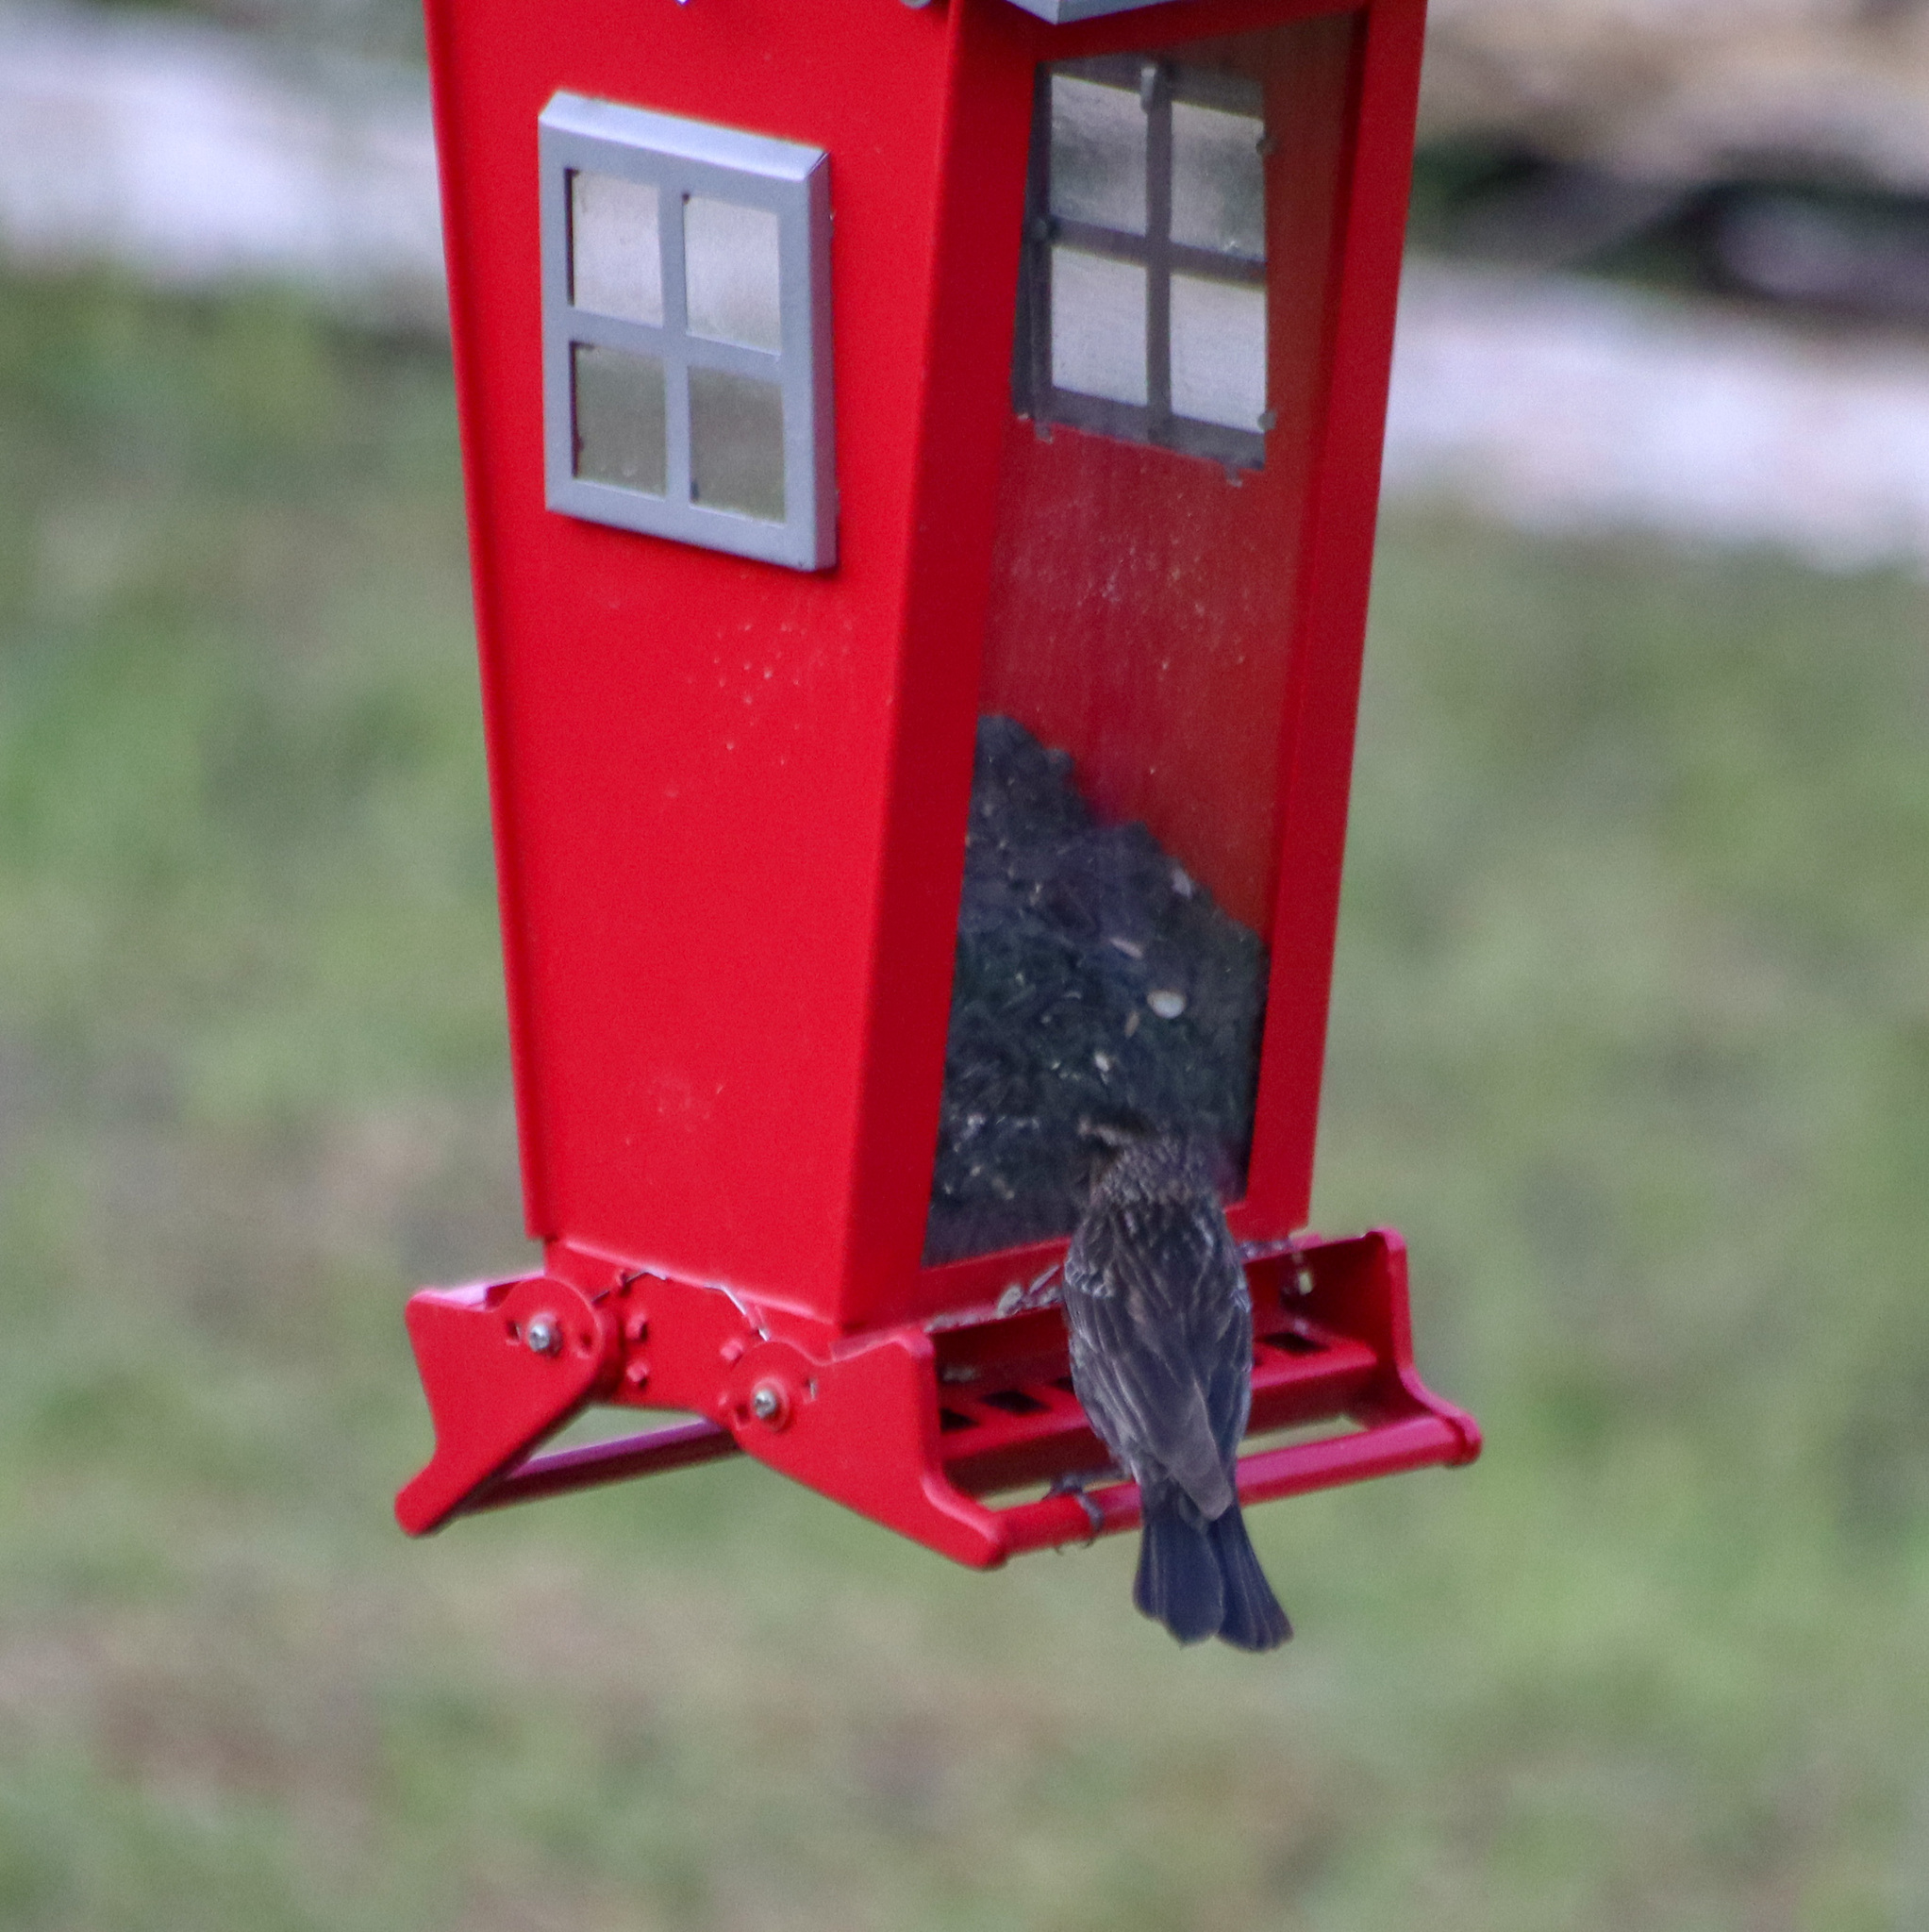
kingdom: Animalia
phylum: Chordata
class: Aves
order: Passeriformes
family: Icteridae
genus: Agelaius
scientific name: Agelaius phoeniceus
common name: Red-winged blackbird
